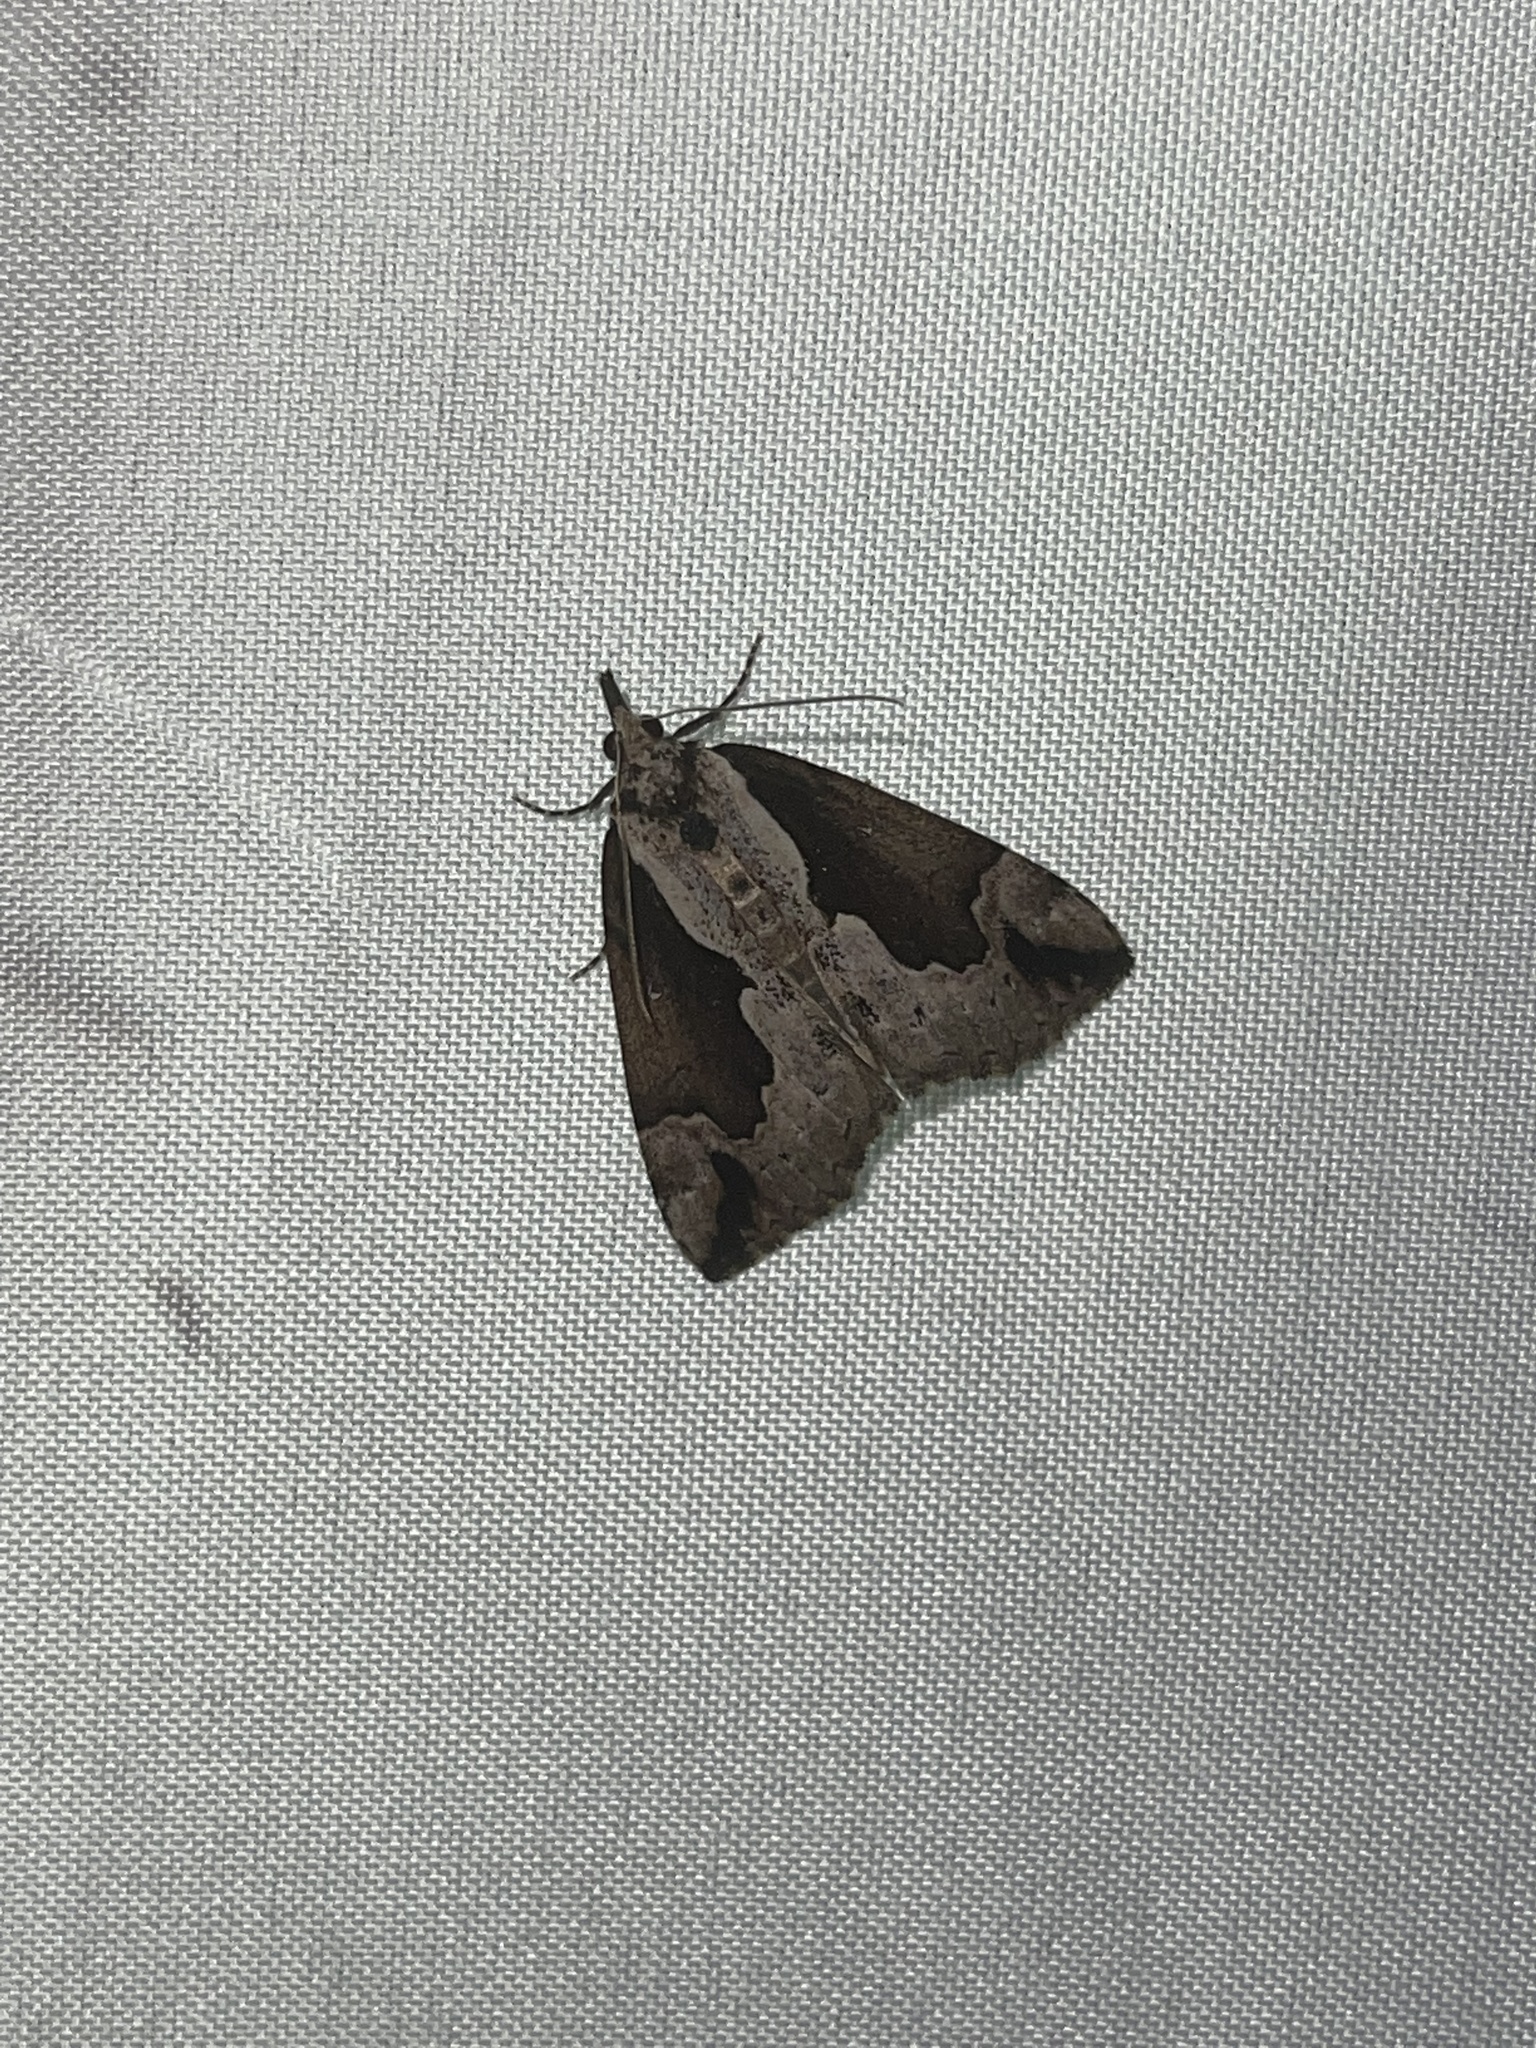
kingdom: Animalia
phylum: Arthropoda
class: Insecta
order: Lepidoptera
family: Erebidae
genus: Hypena
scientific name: Hypena baltimoralis
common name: Baltimore snout
